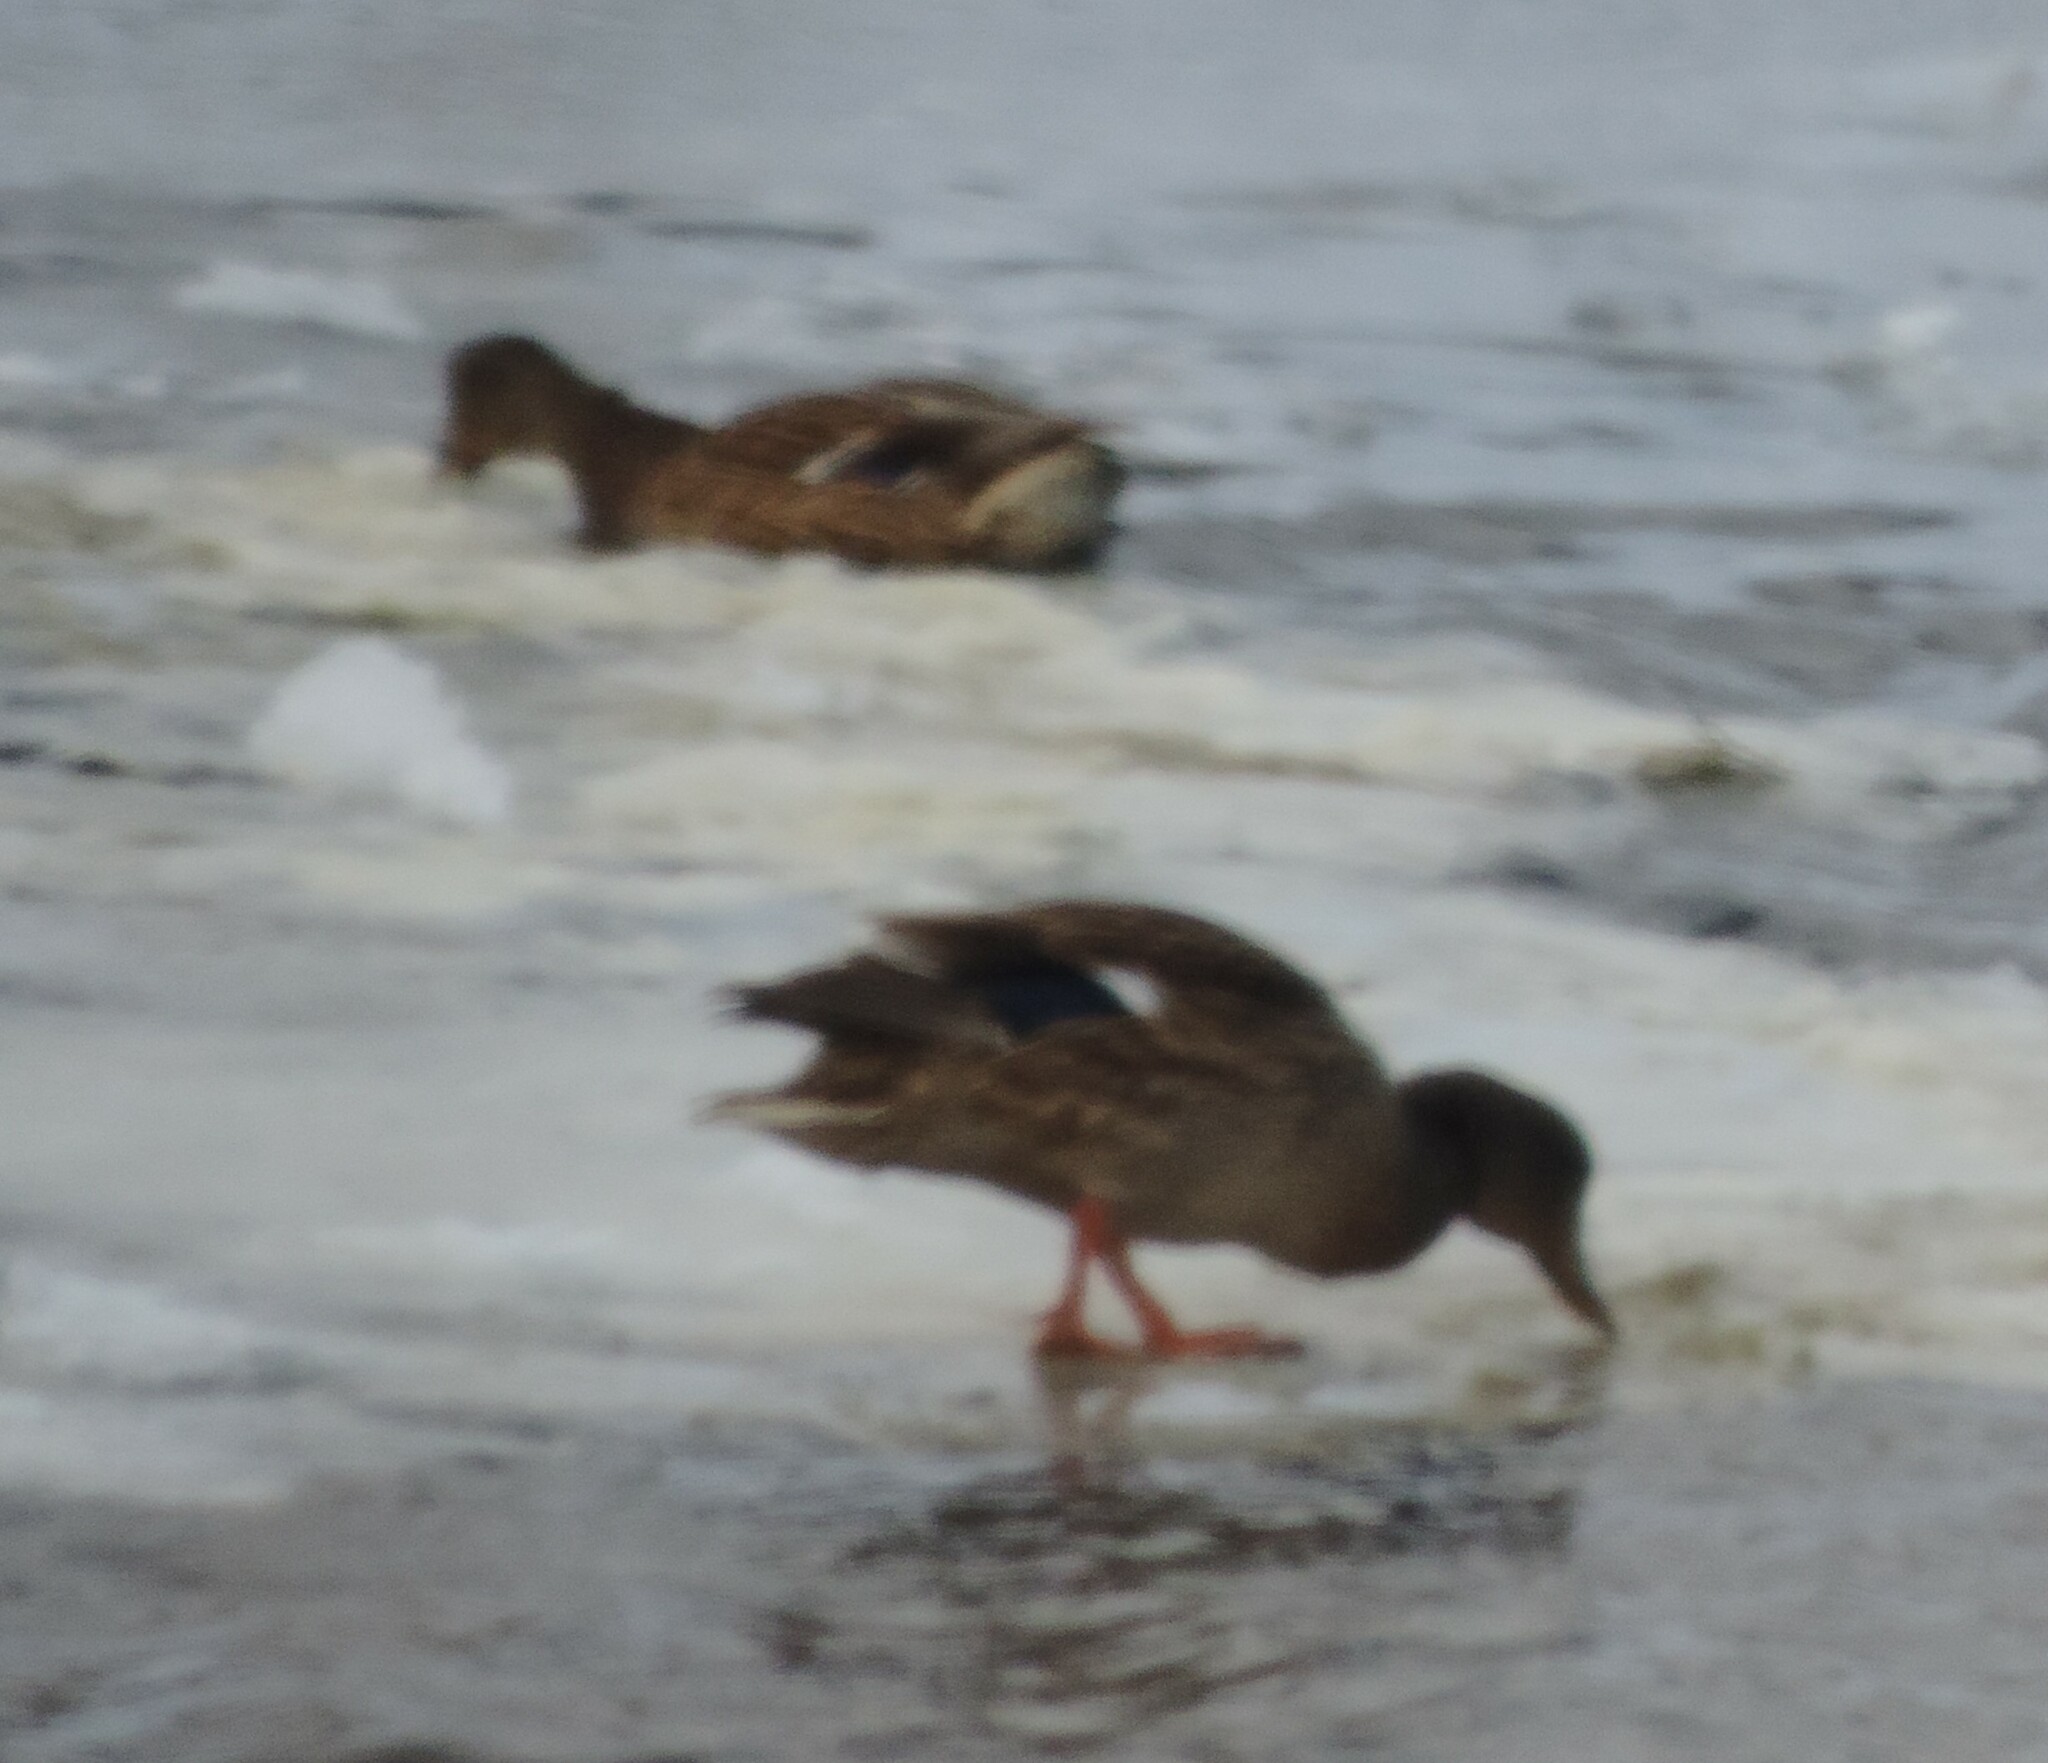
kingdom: Animalia
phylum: Chordata
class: Aves
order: Anseriformes
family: Anatidae
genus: Anas
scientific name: Anas platyrhynchos
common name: Mallard
